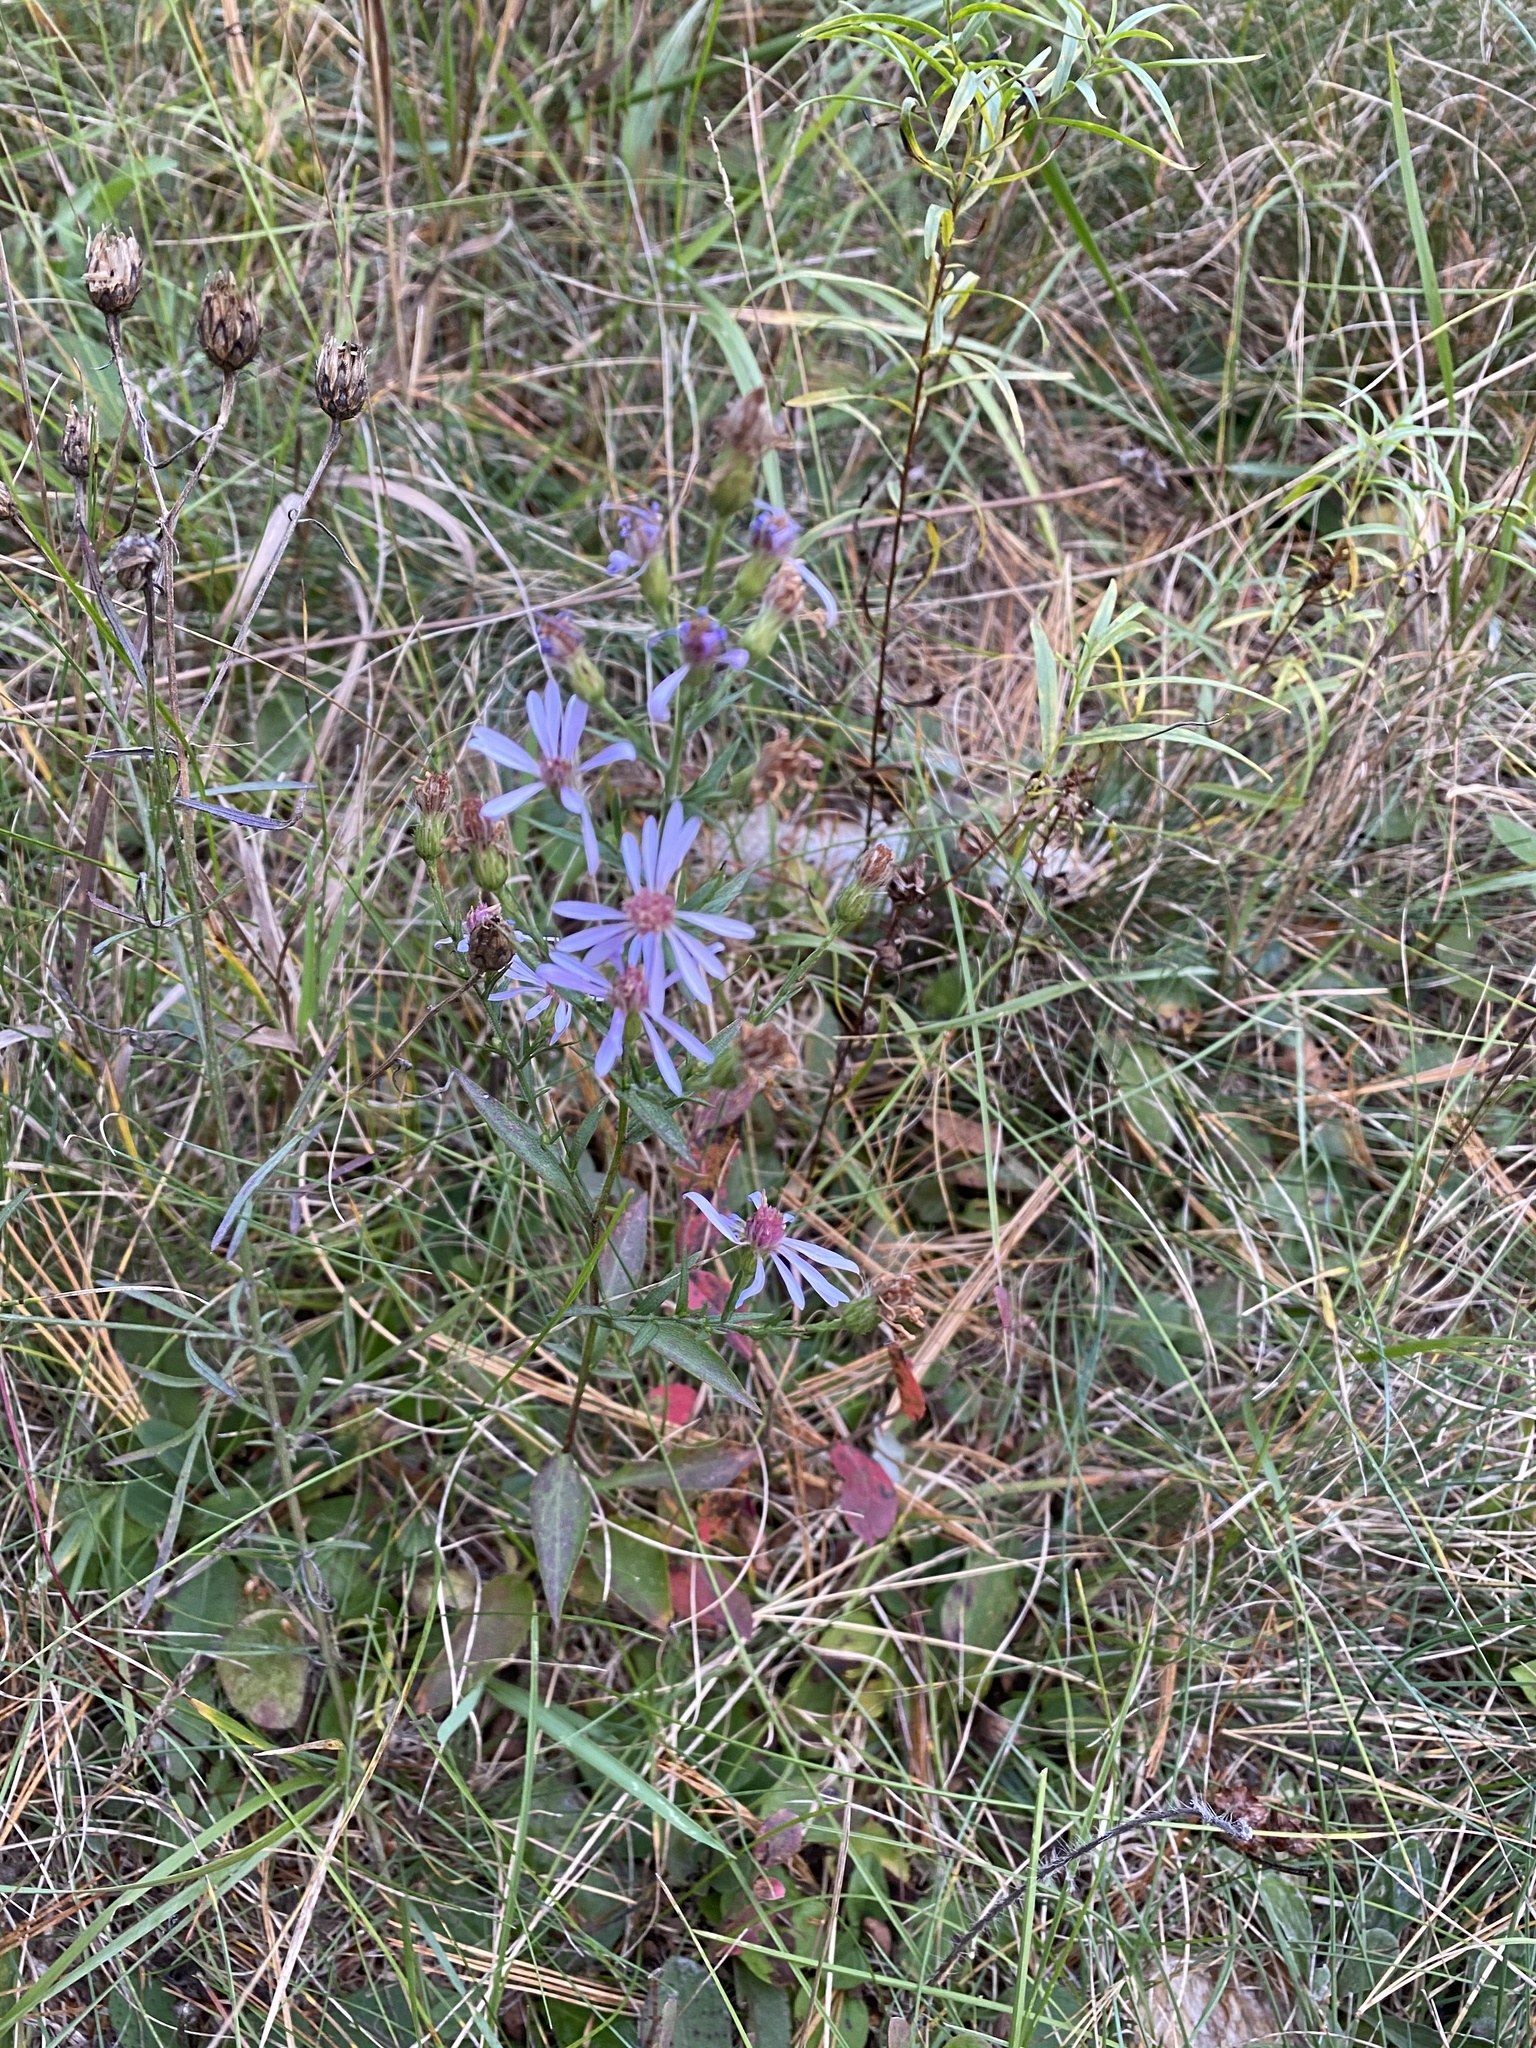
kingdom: Plantae
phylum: Tracheophyta
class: Magnoliopsida
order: Asterales
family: Asteraceae
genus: Symphyotrichum
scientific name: Symphyotrichum ciliolatum
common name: Fringed blue aster
